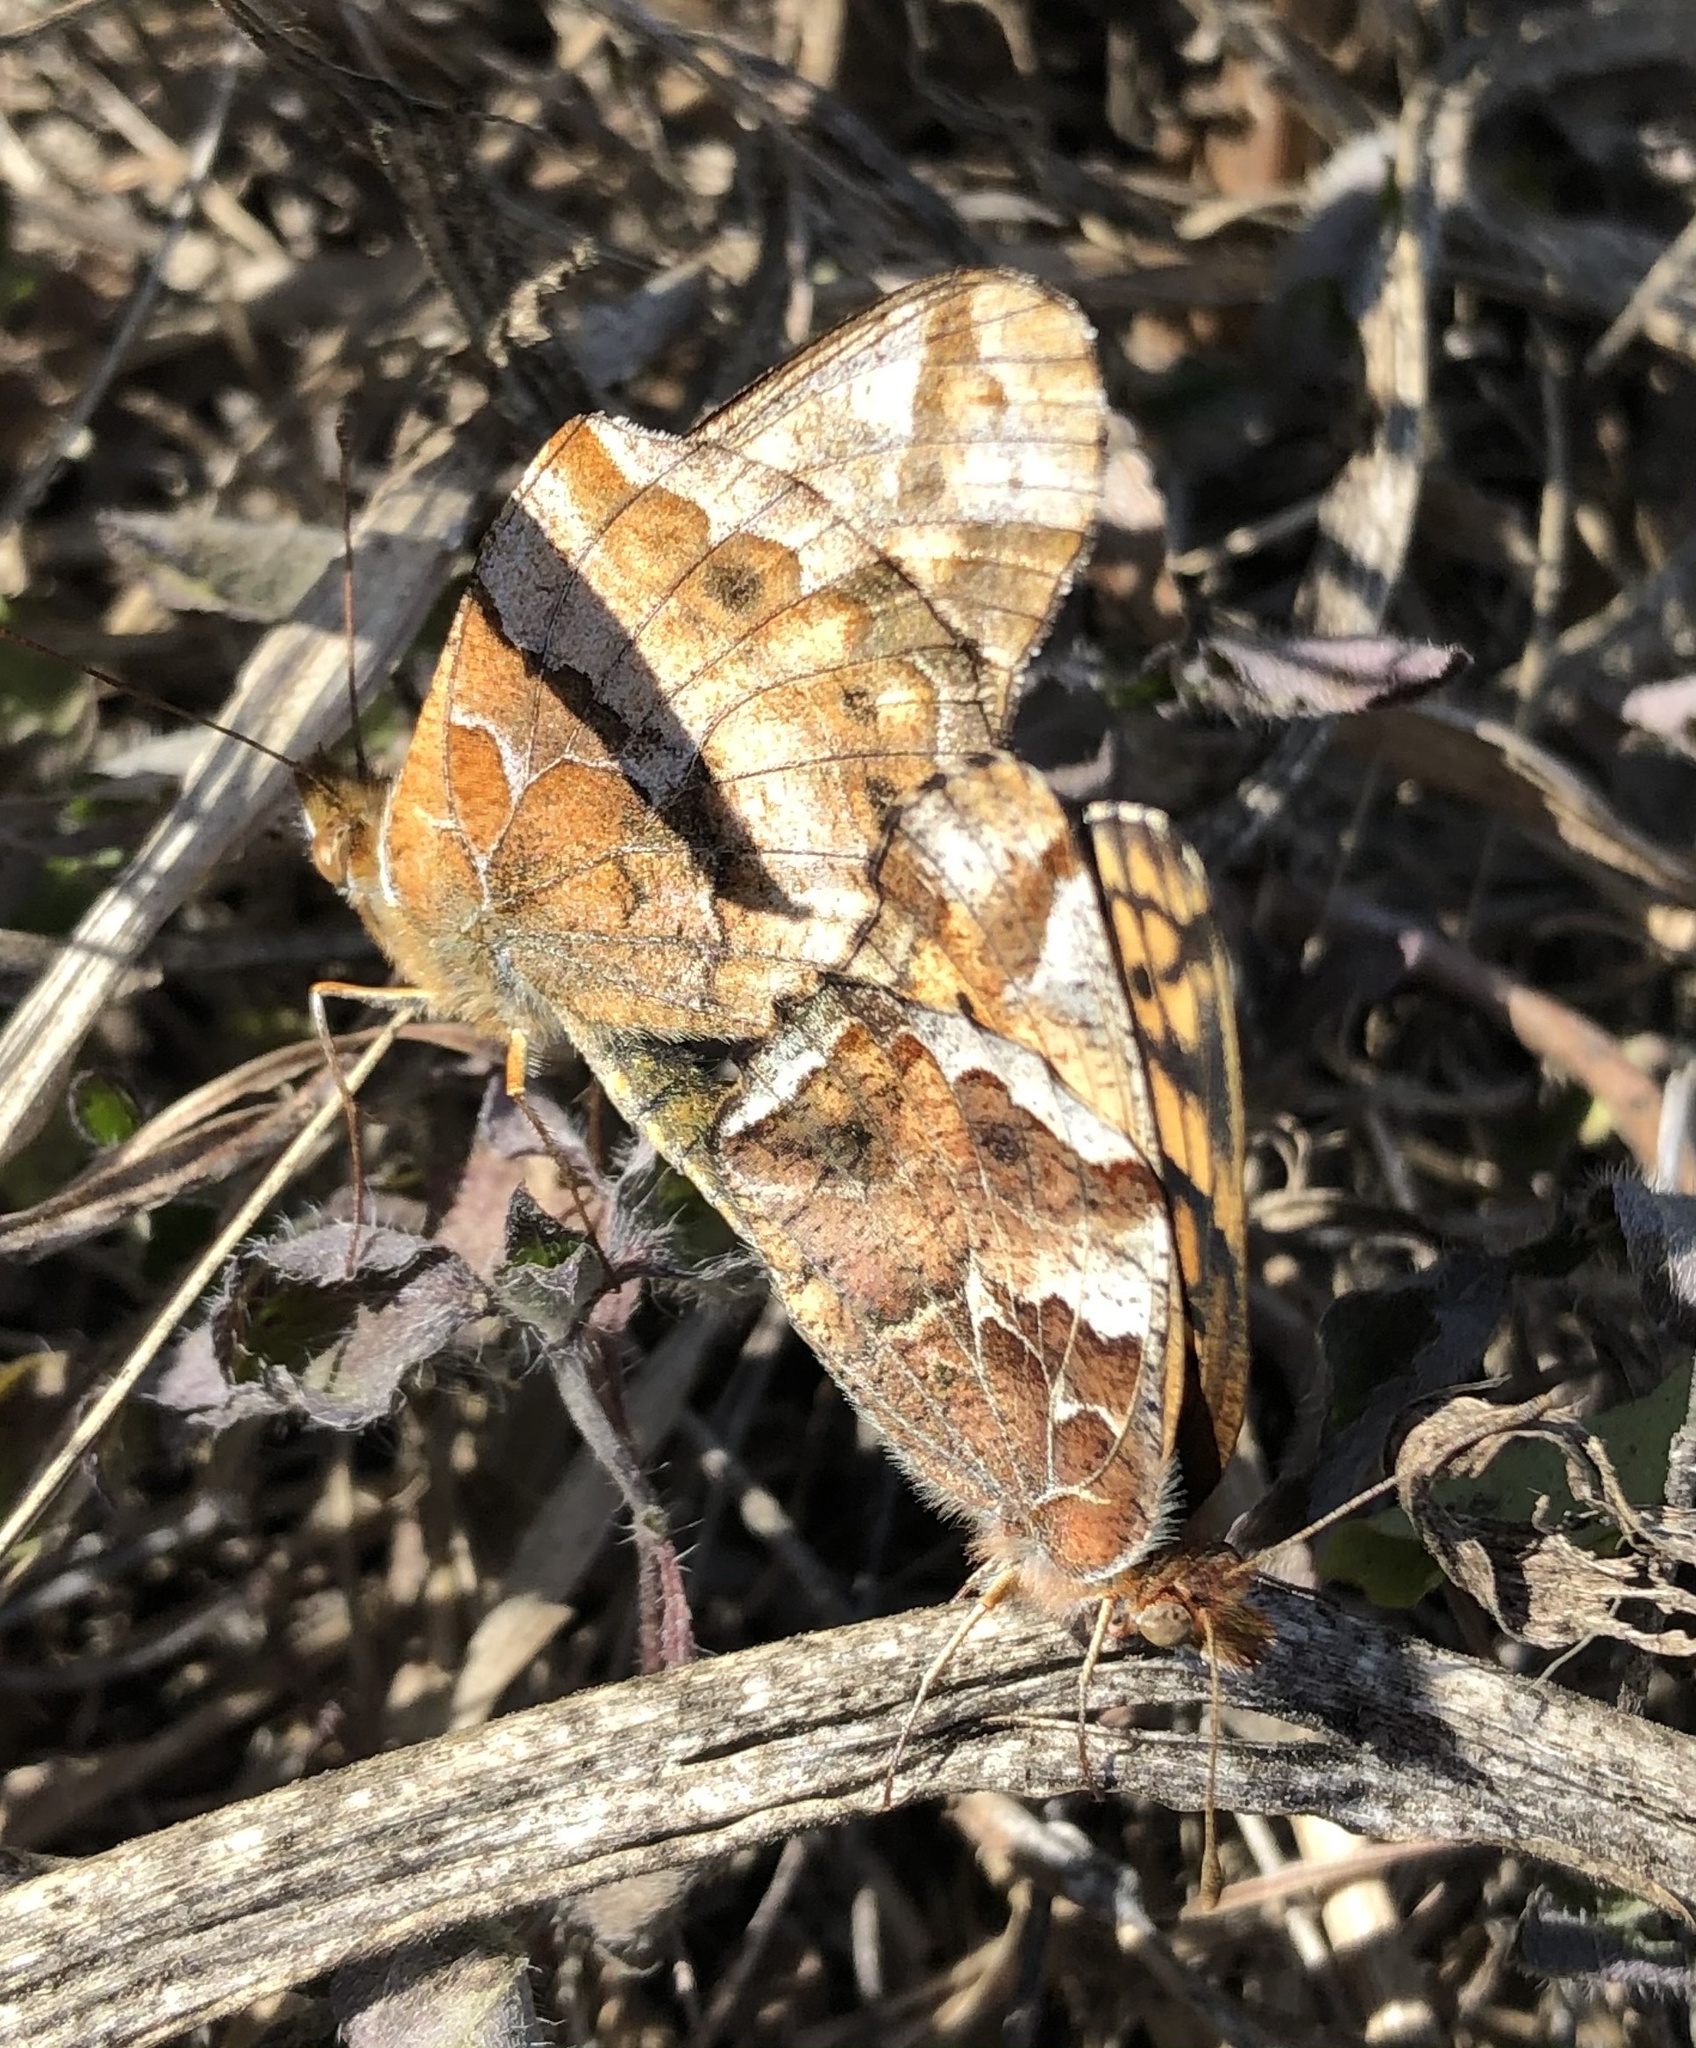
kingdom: Animalia
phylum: Arthropoda
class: Insecta
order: Lepidoptera
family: Nymphalidae
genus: Euptoieta
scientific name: Euptoieta claudia
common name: Variegated fritillary
